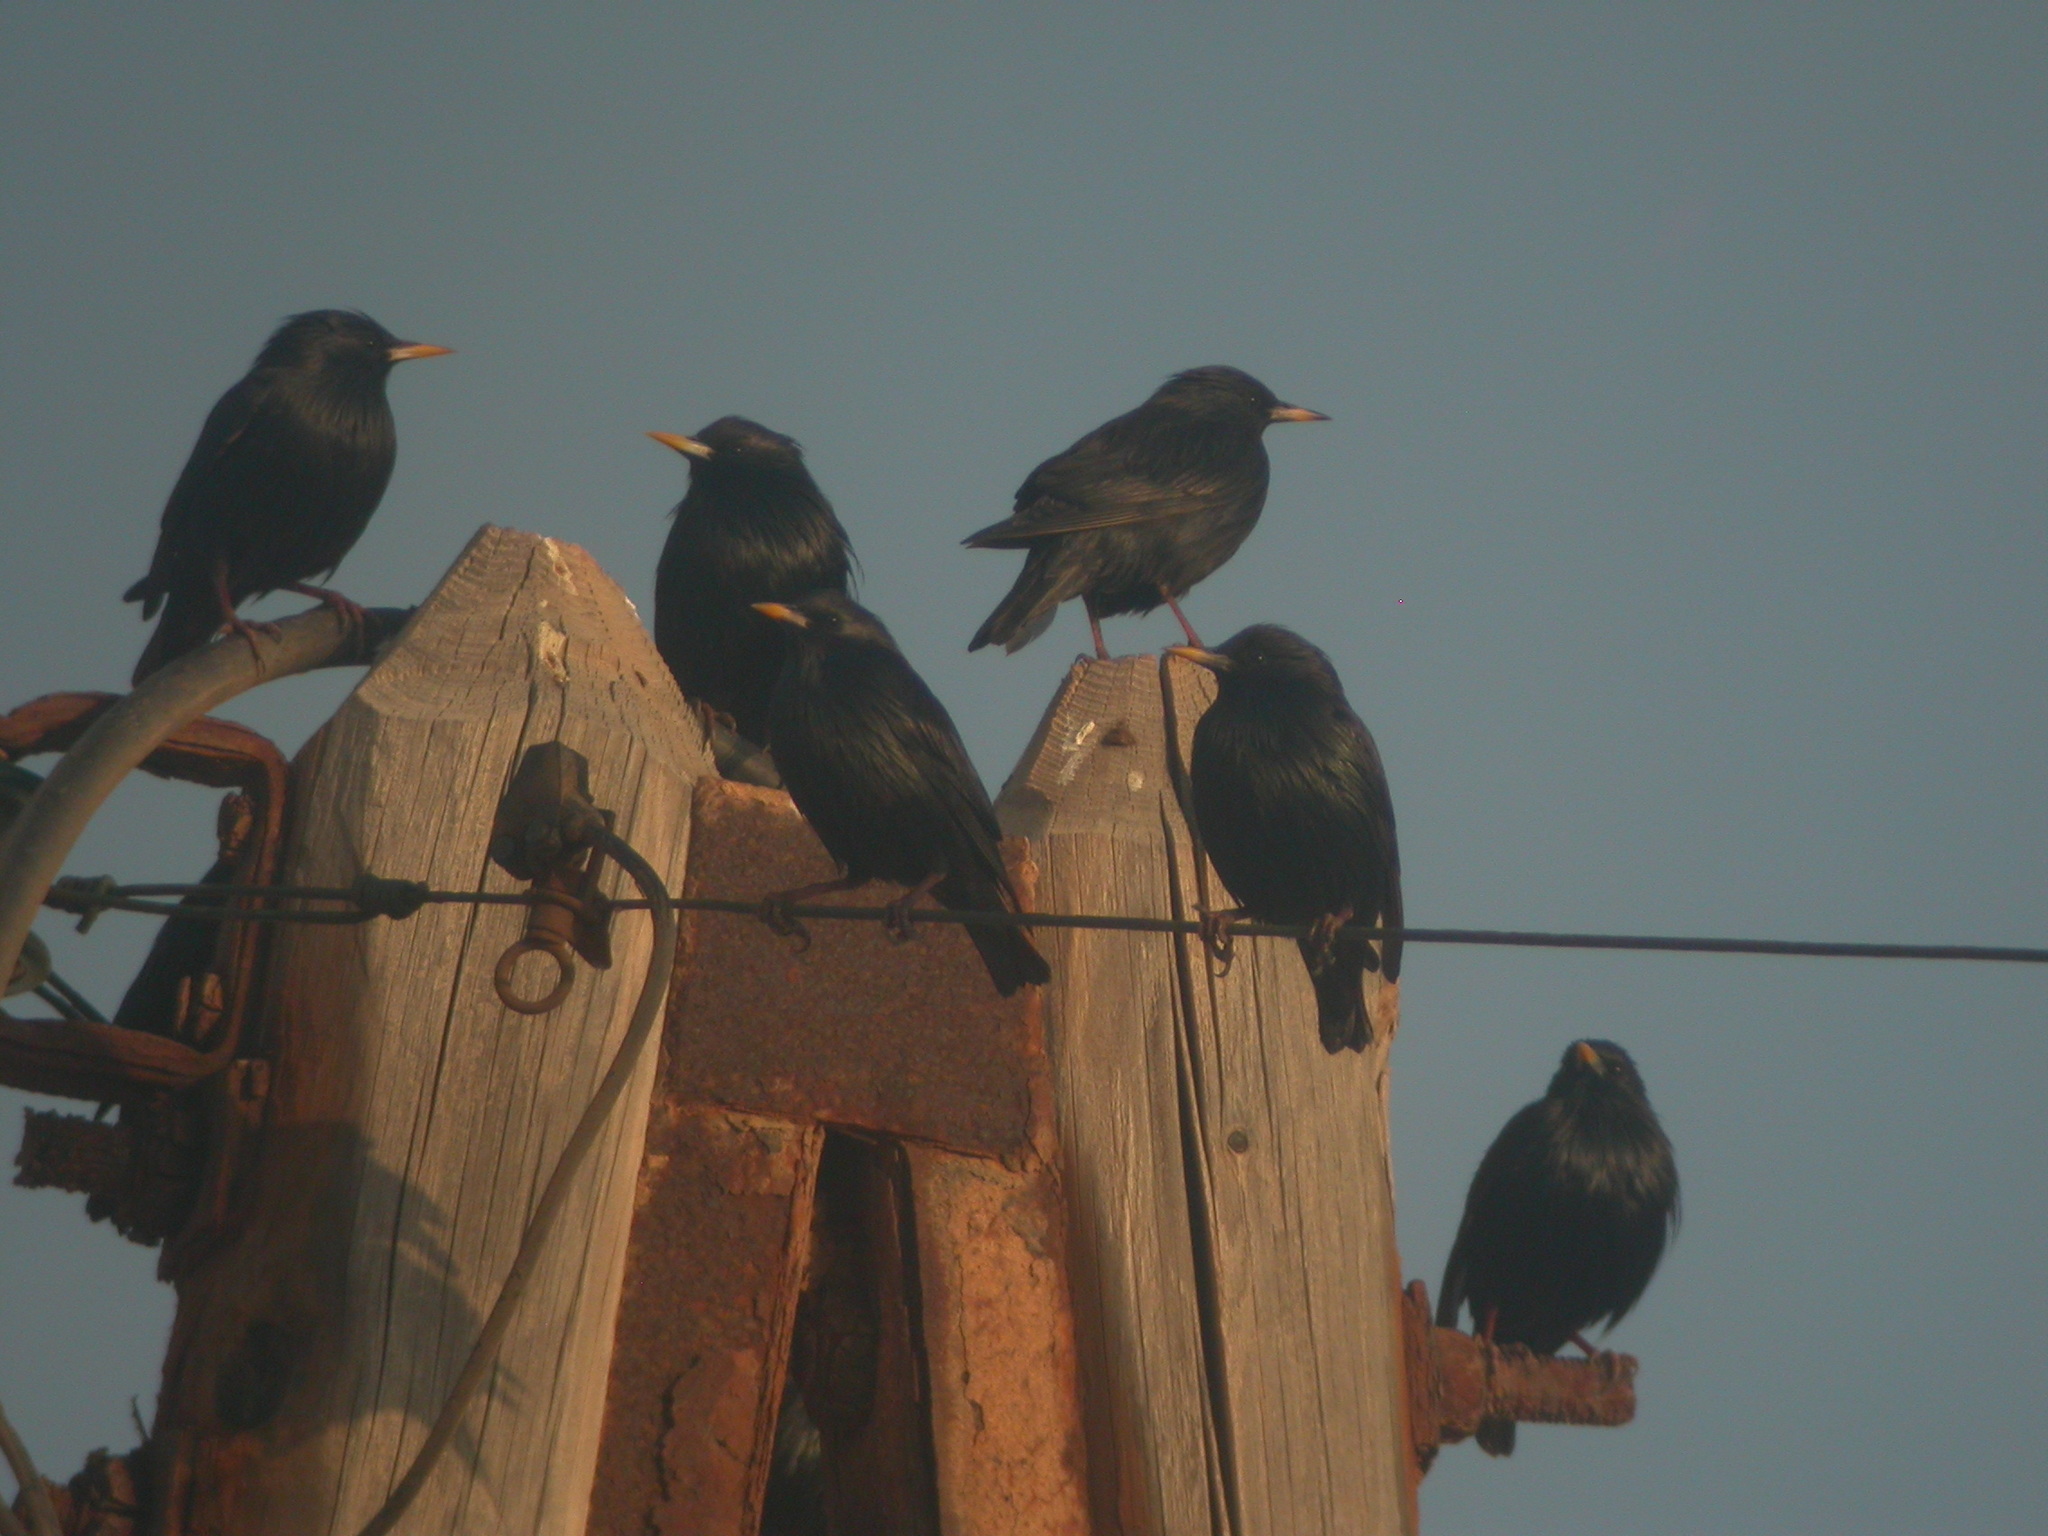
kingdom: Animalia
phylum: Chordata
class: Aves
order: Passeriformes
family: Sturnidae
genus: Sturnus
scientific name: Sturnus unicolor
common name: Spotless starling
